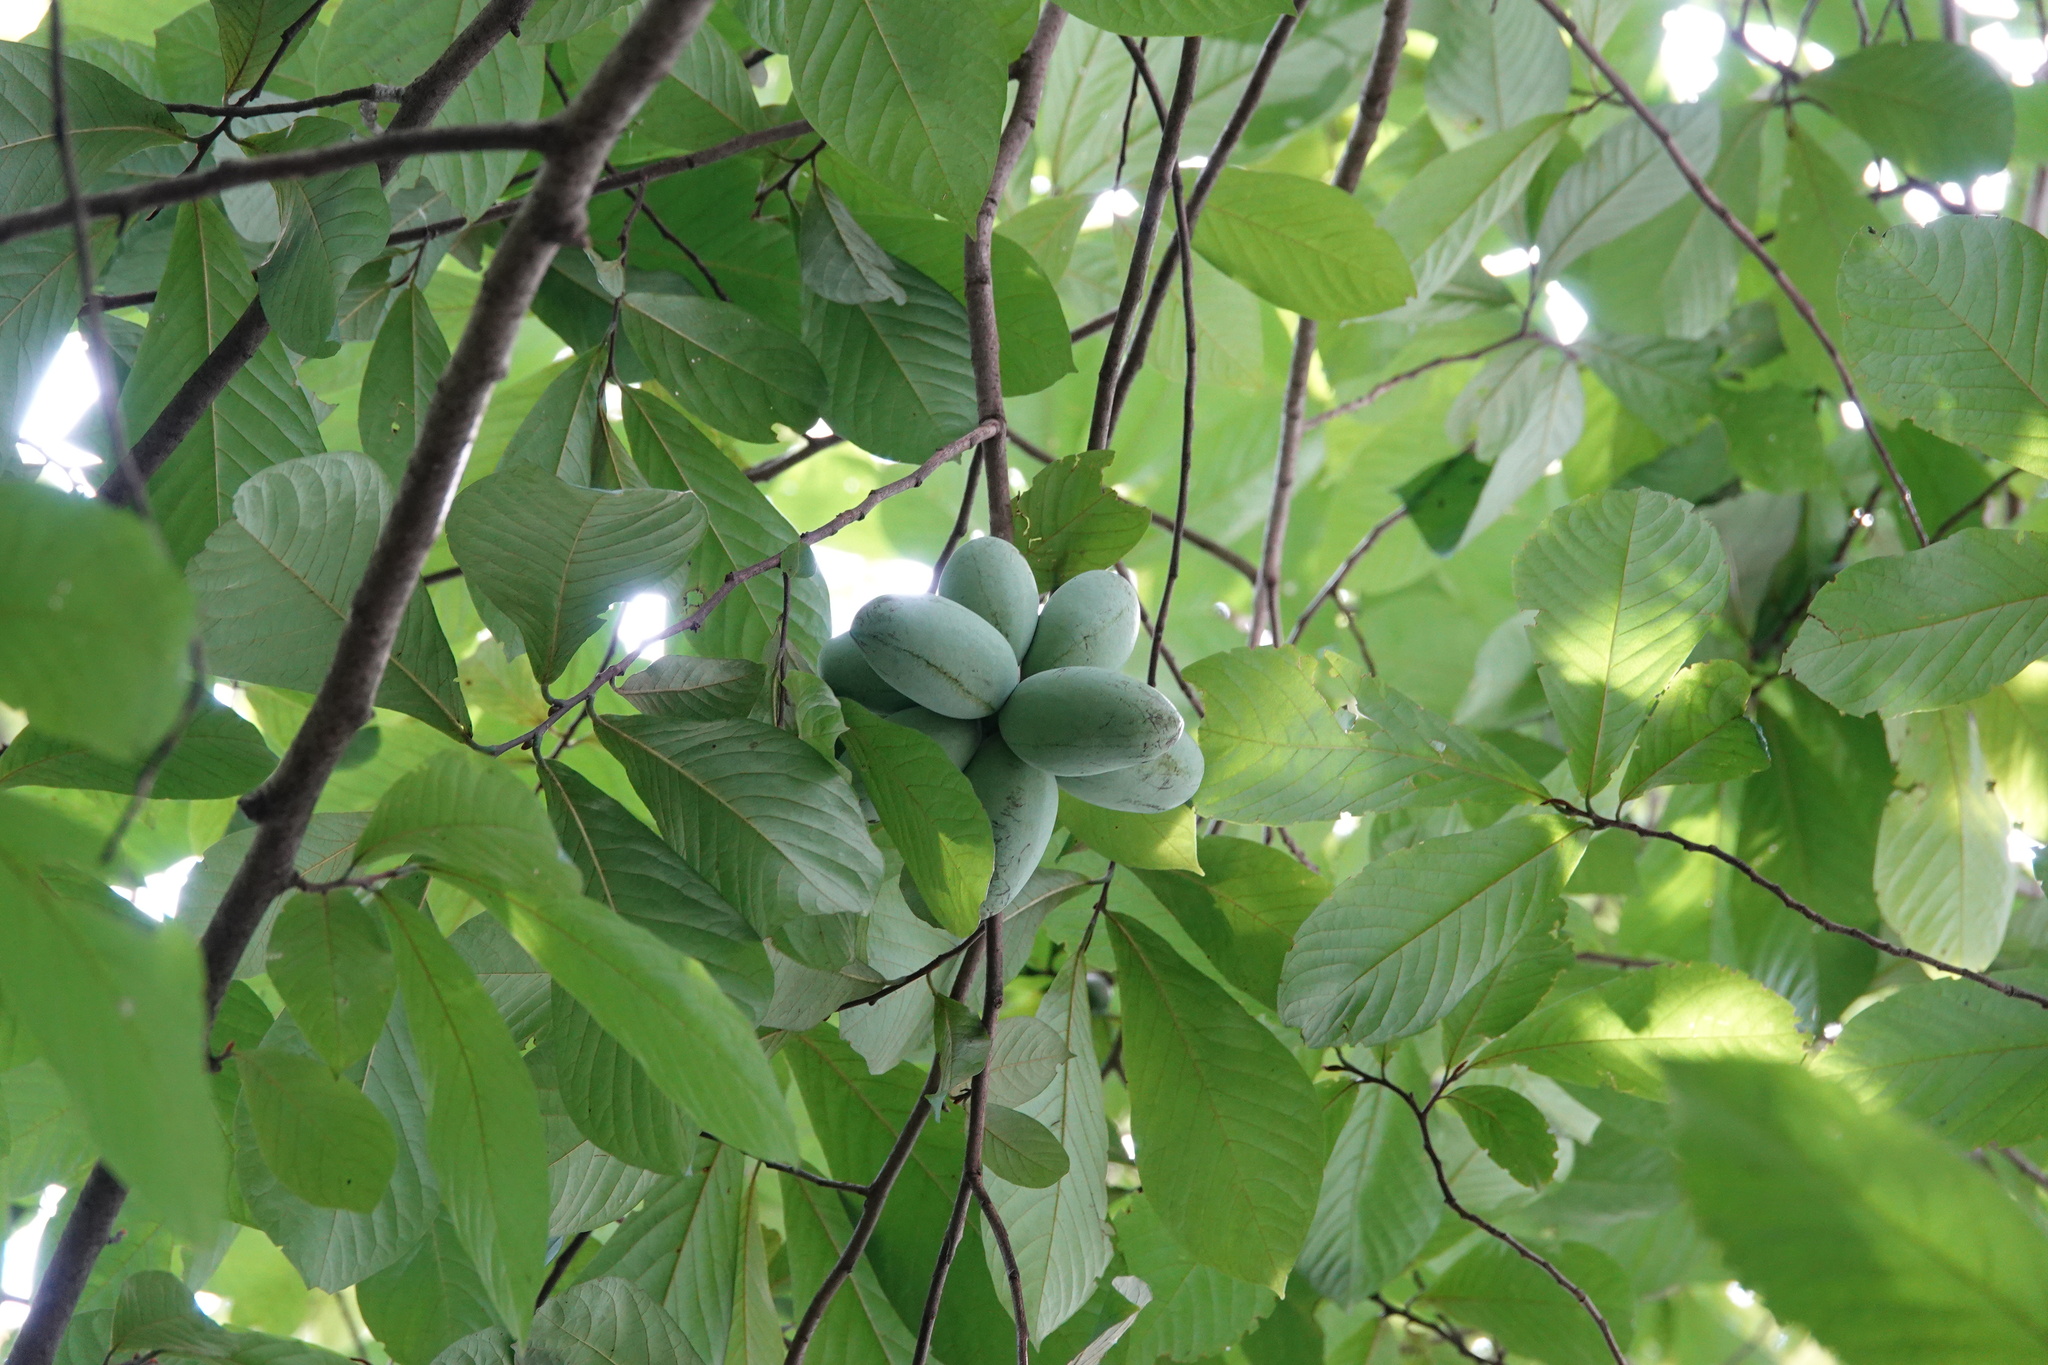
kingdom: Plantae
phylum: Tracheophyta
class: Magnoliopsida
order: Magnoliales
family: Annonaceae
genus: Asimina
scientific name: Asimina triloba
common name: Dog-banana
